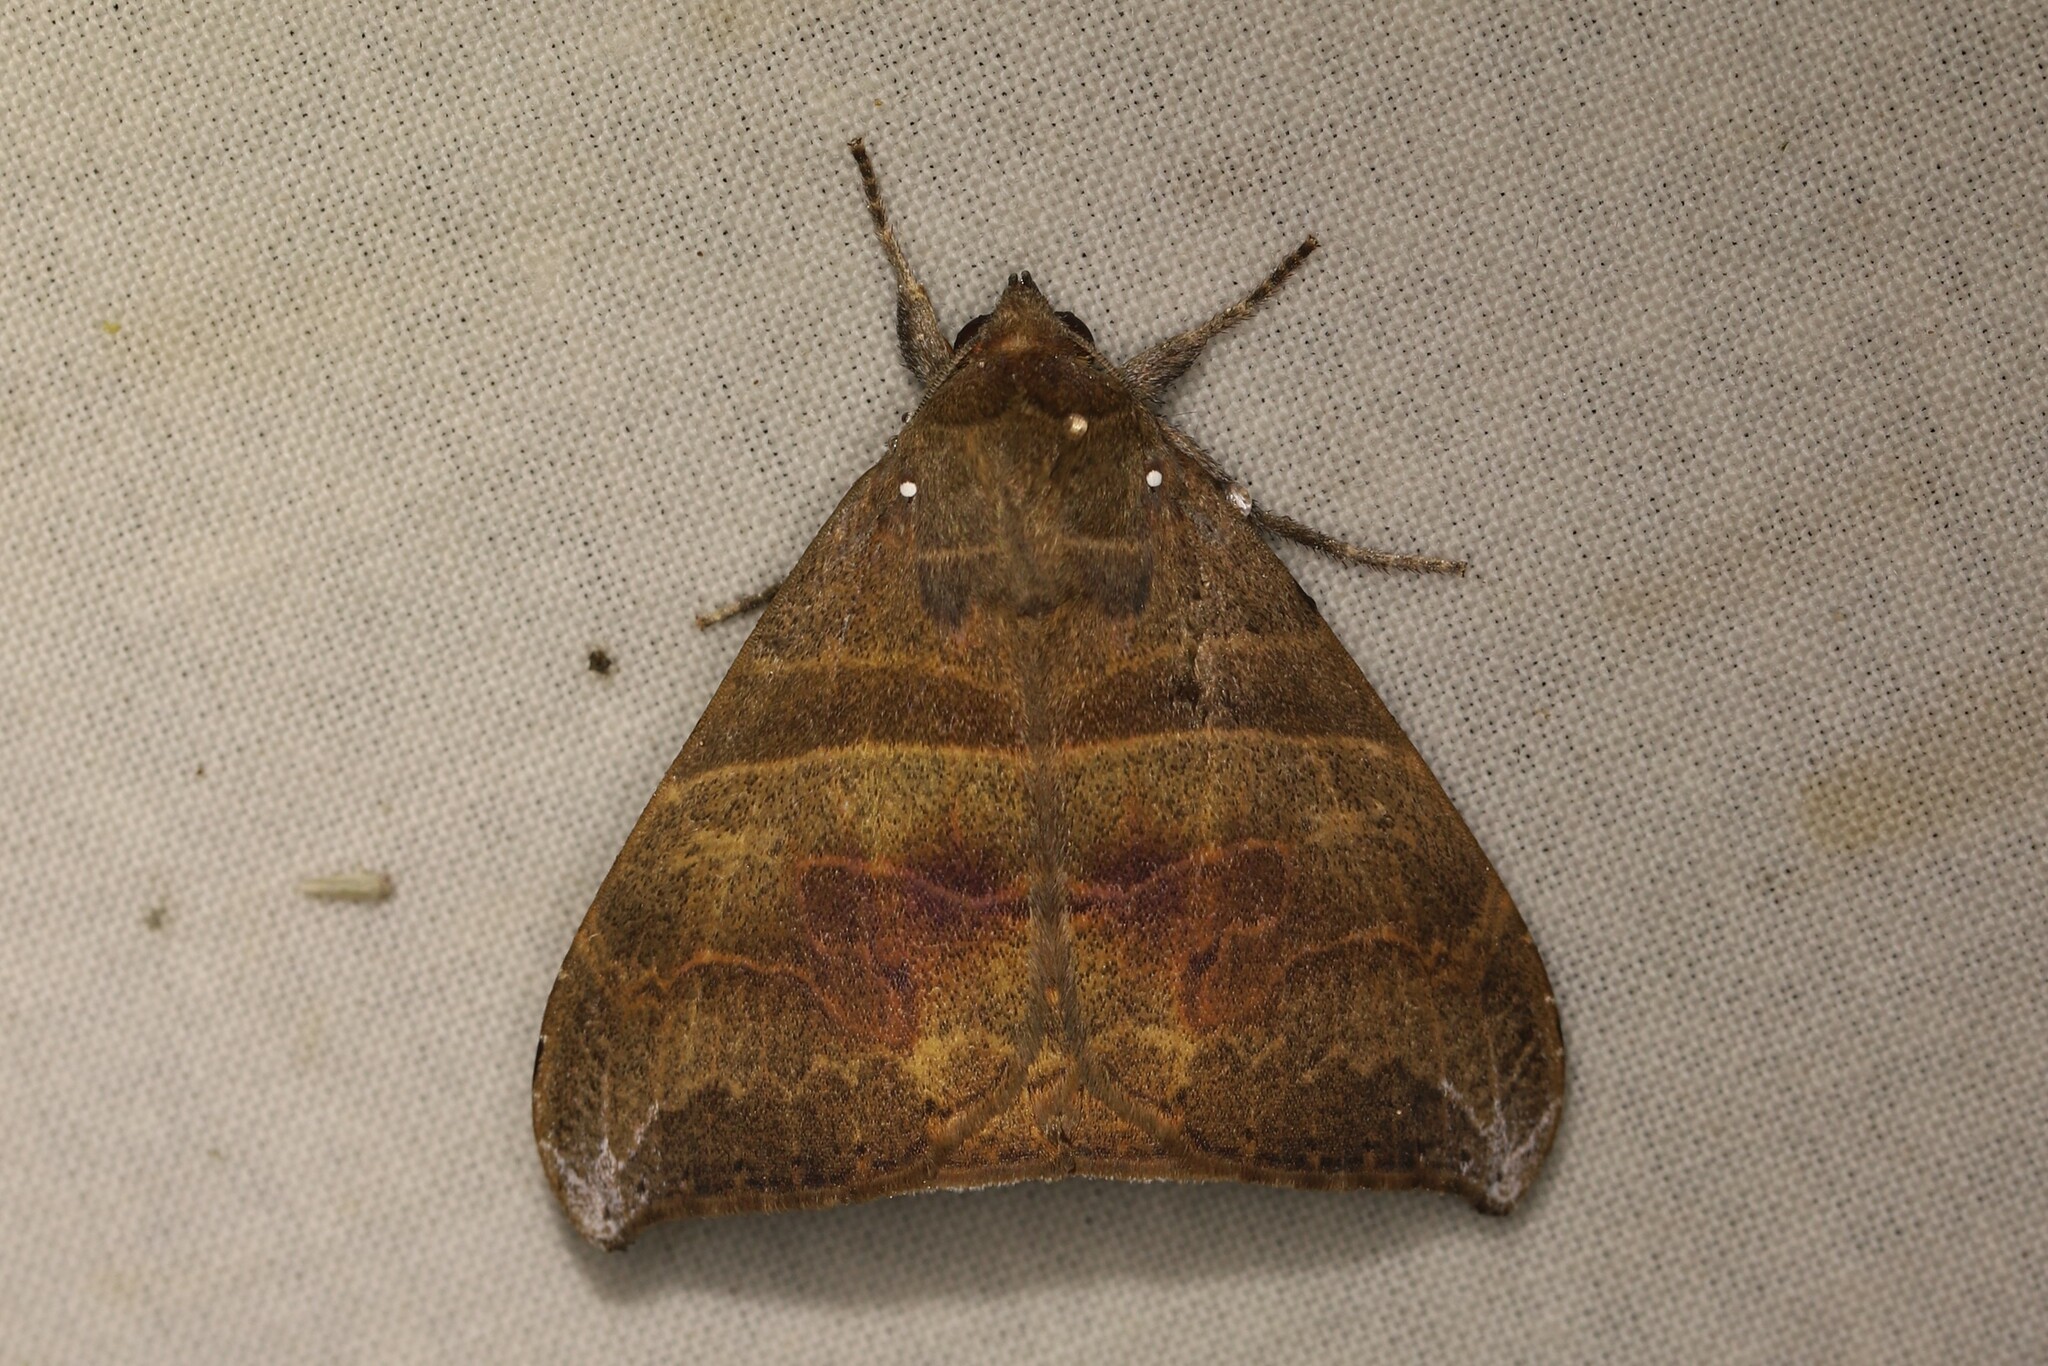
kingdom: Animalia
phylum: Arthropoda
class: Insecta
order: Lepidoptera
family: Erebidae
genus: Neophisma
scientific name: Neophisma
